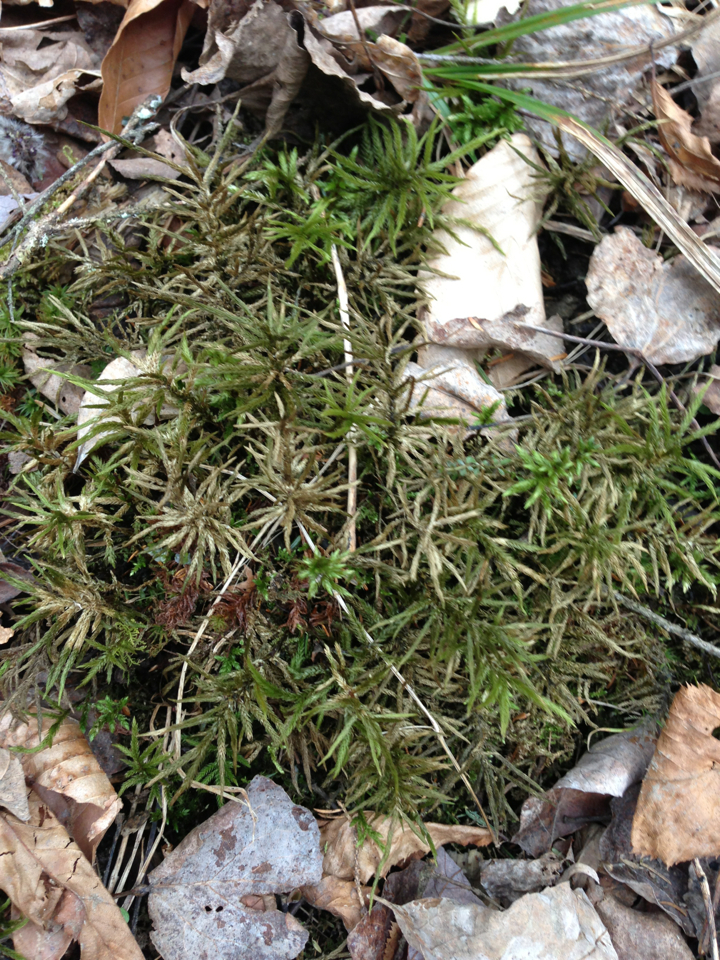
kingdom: Plantae
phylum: Bryophyta
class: Bryopsida
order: Hypnales
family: Climaciaceae
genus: Climacium
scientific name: Climacium dendroides
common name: Northern tree moss
